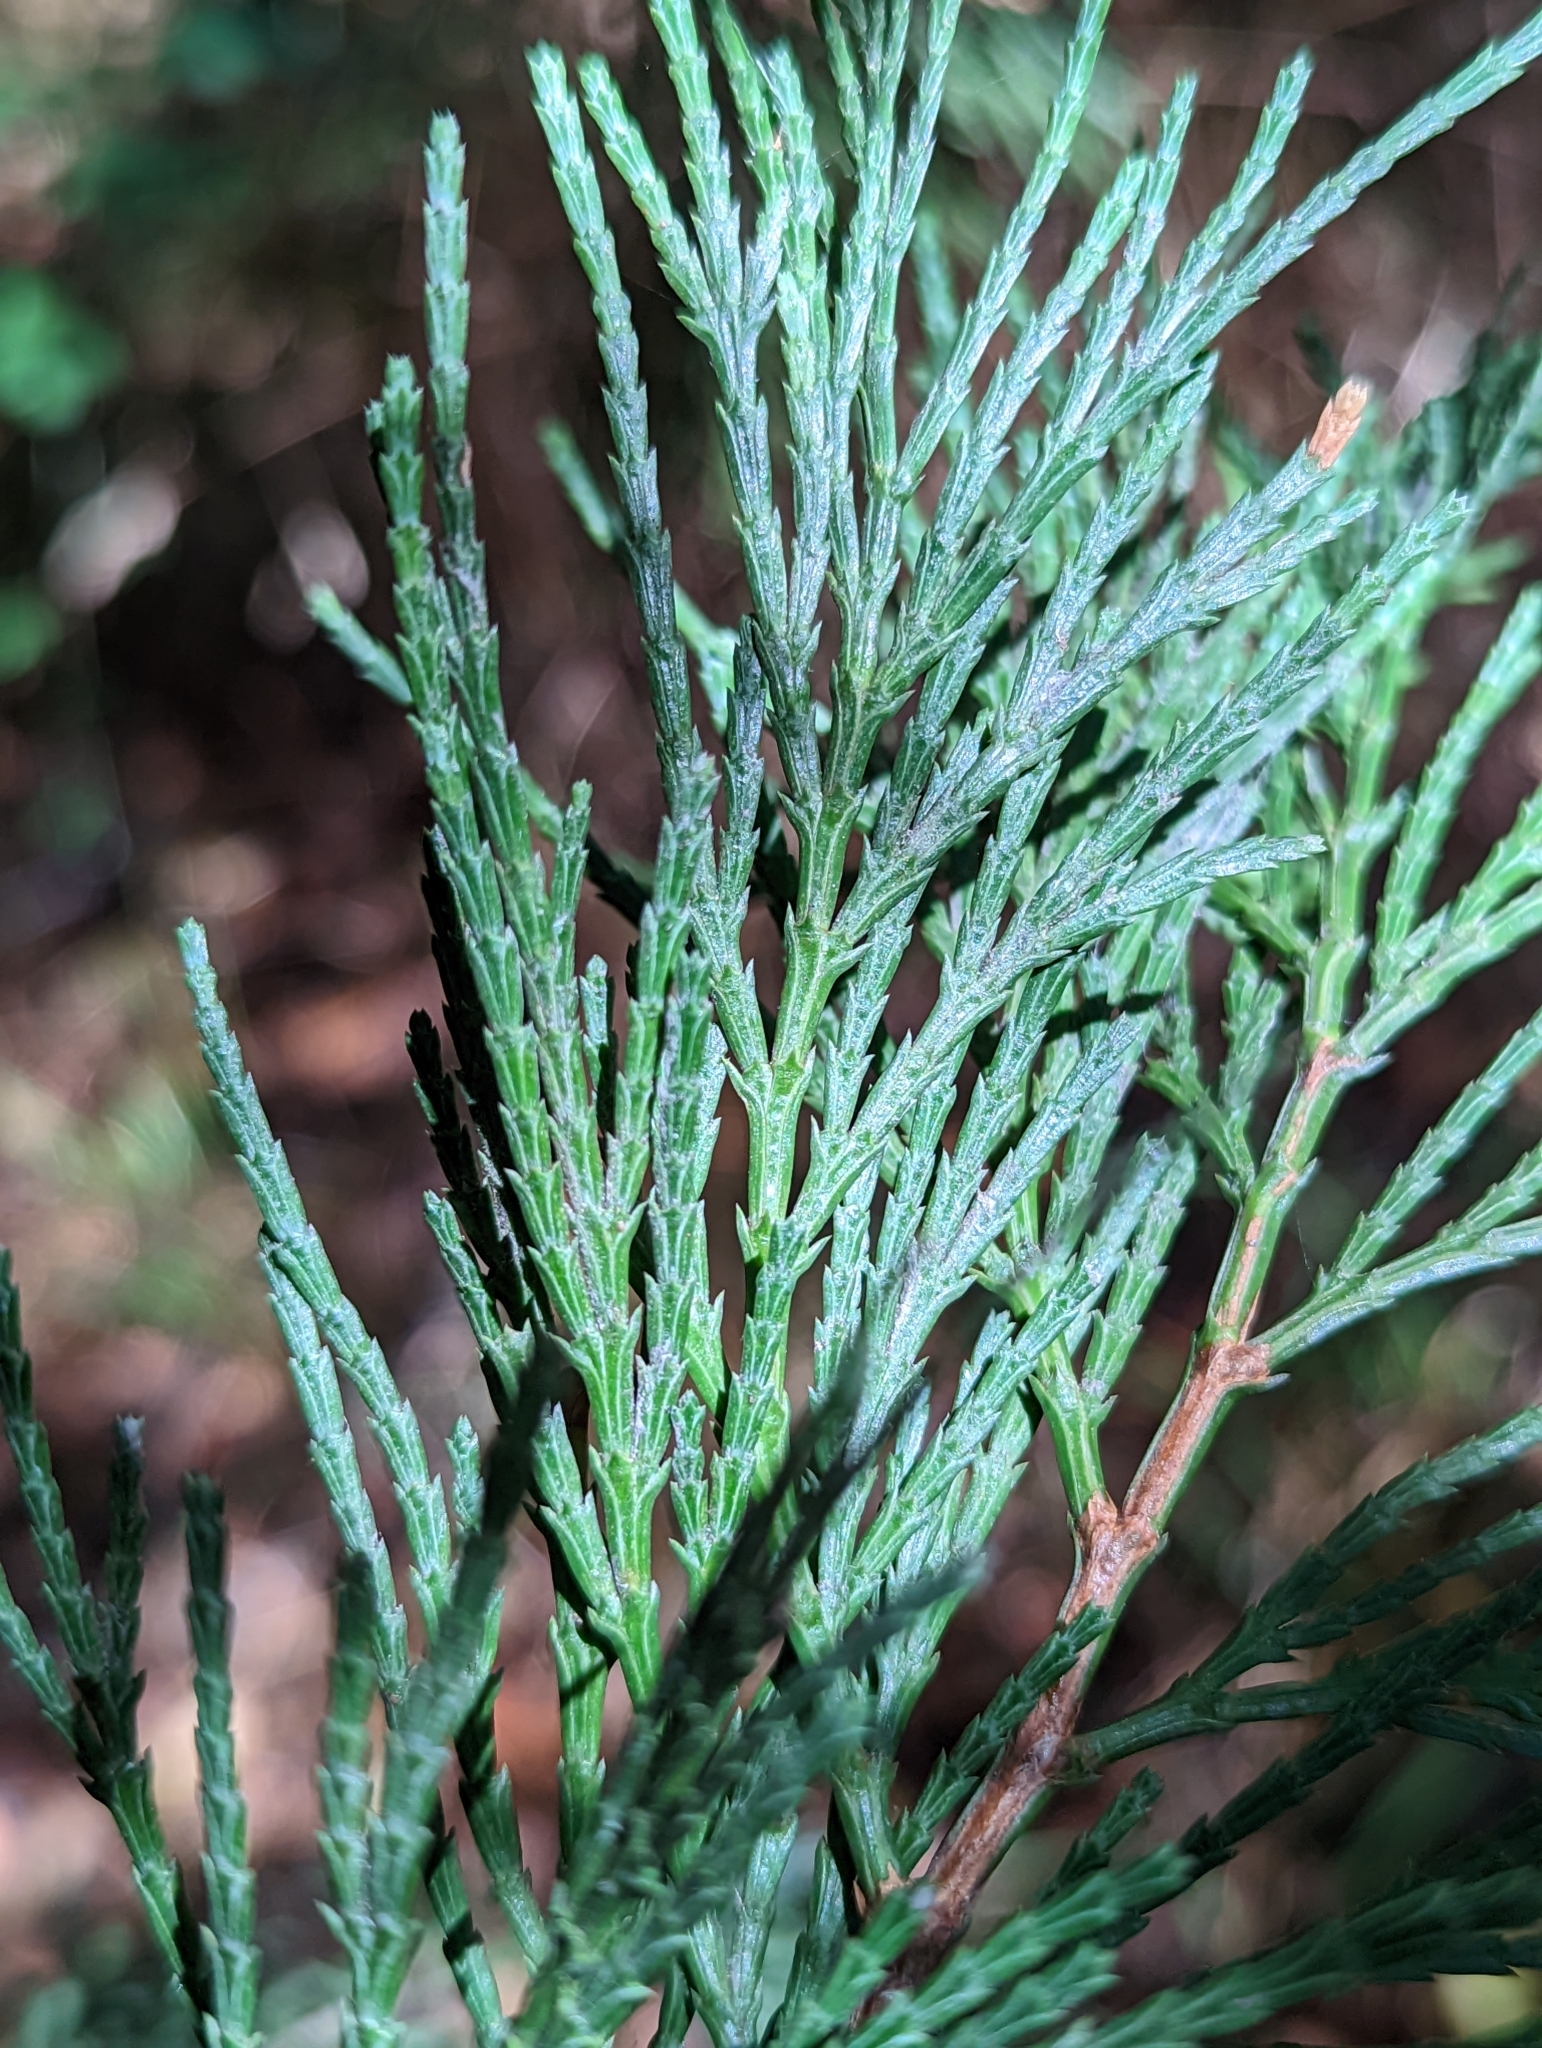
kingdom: Plantae
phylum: Tracheophyta
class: Pinopsida
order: Pinales
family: Cupressaceae
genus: Calocedrus
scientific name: Calocedrus decurrens
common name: Californian incense-cedar
